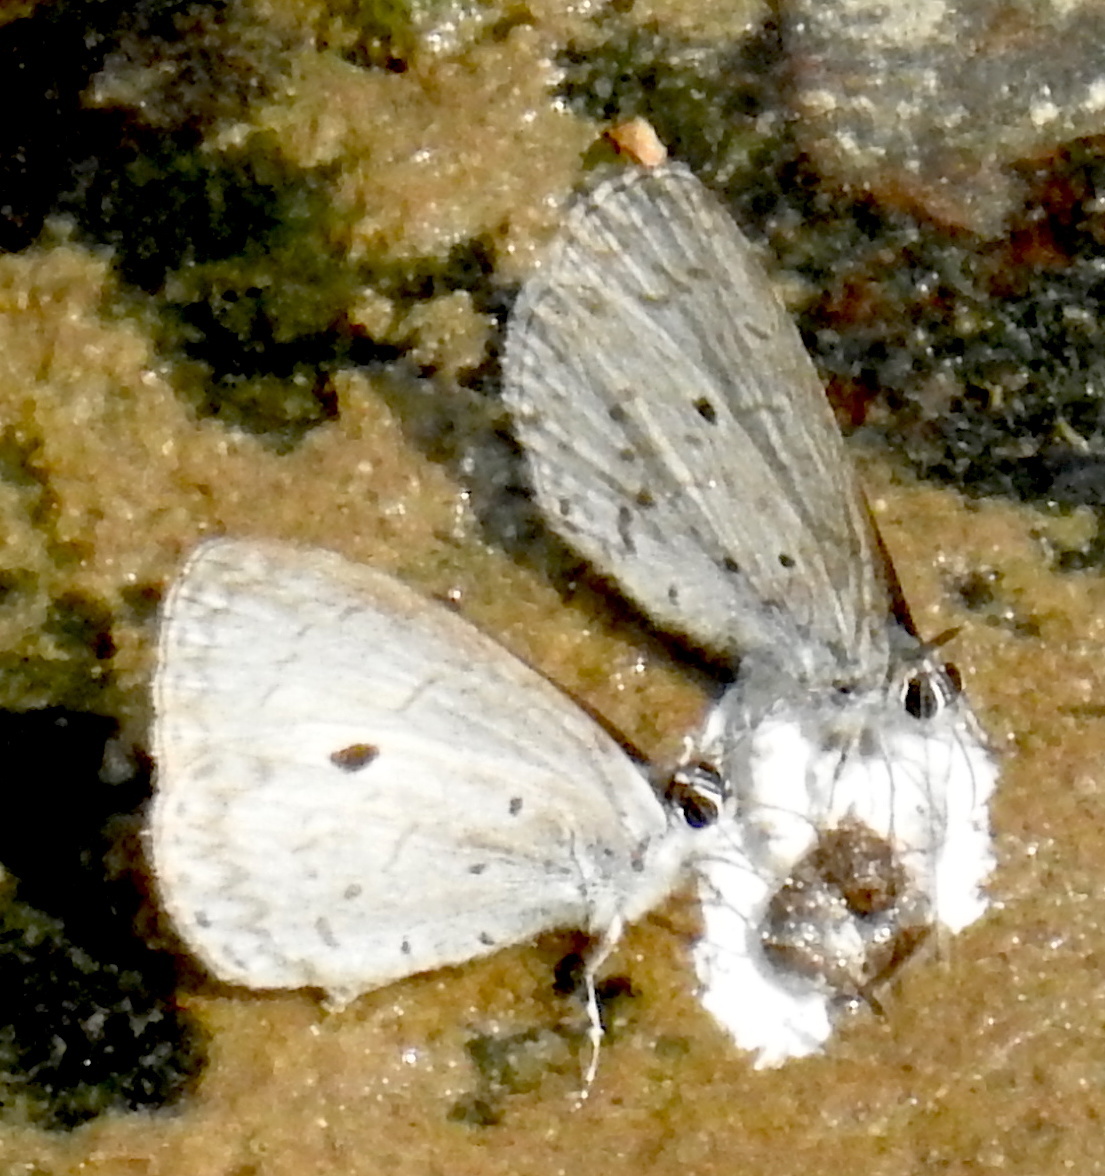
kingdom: Animalia
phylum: Arthropoda
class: Insecta
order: Lepidoptera
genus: Lestranicus
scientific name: Lestranicus transpectus
